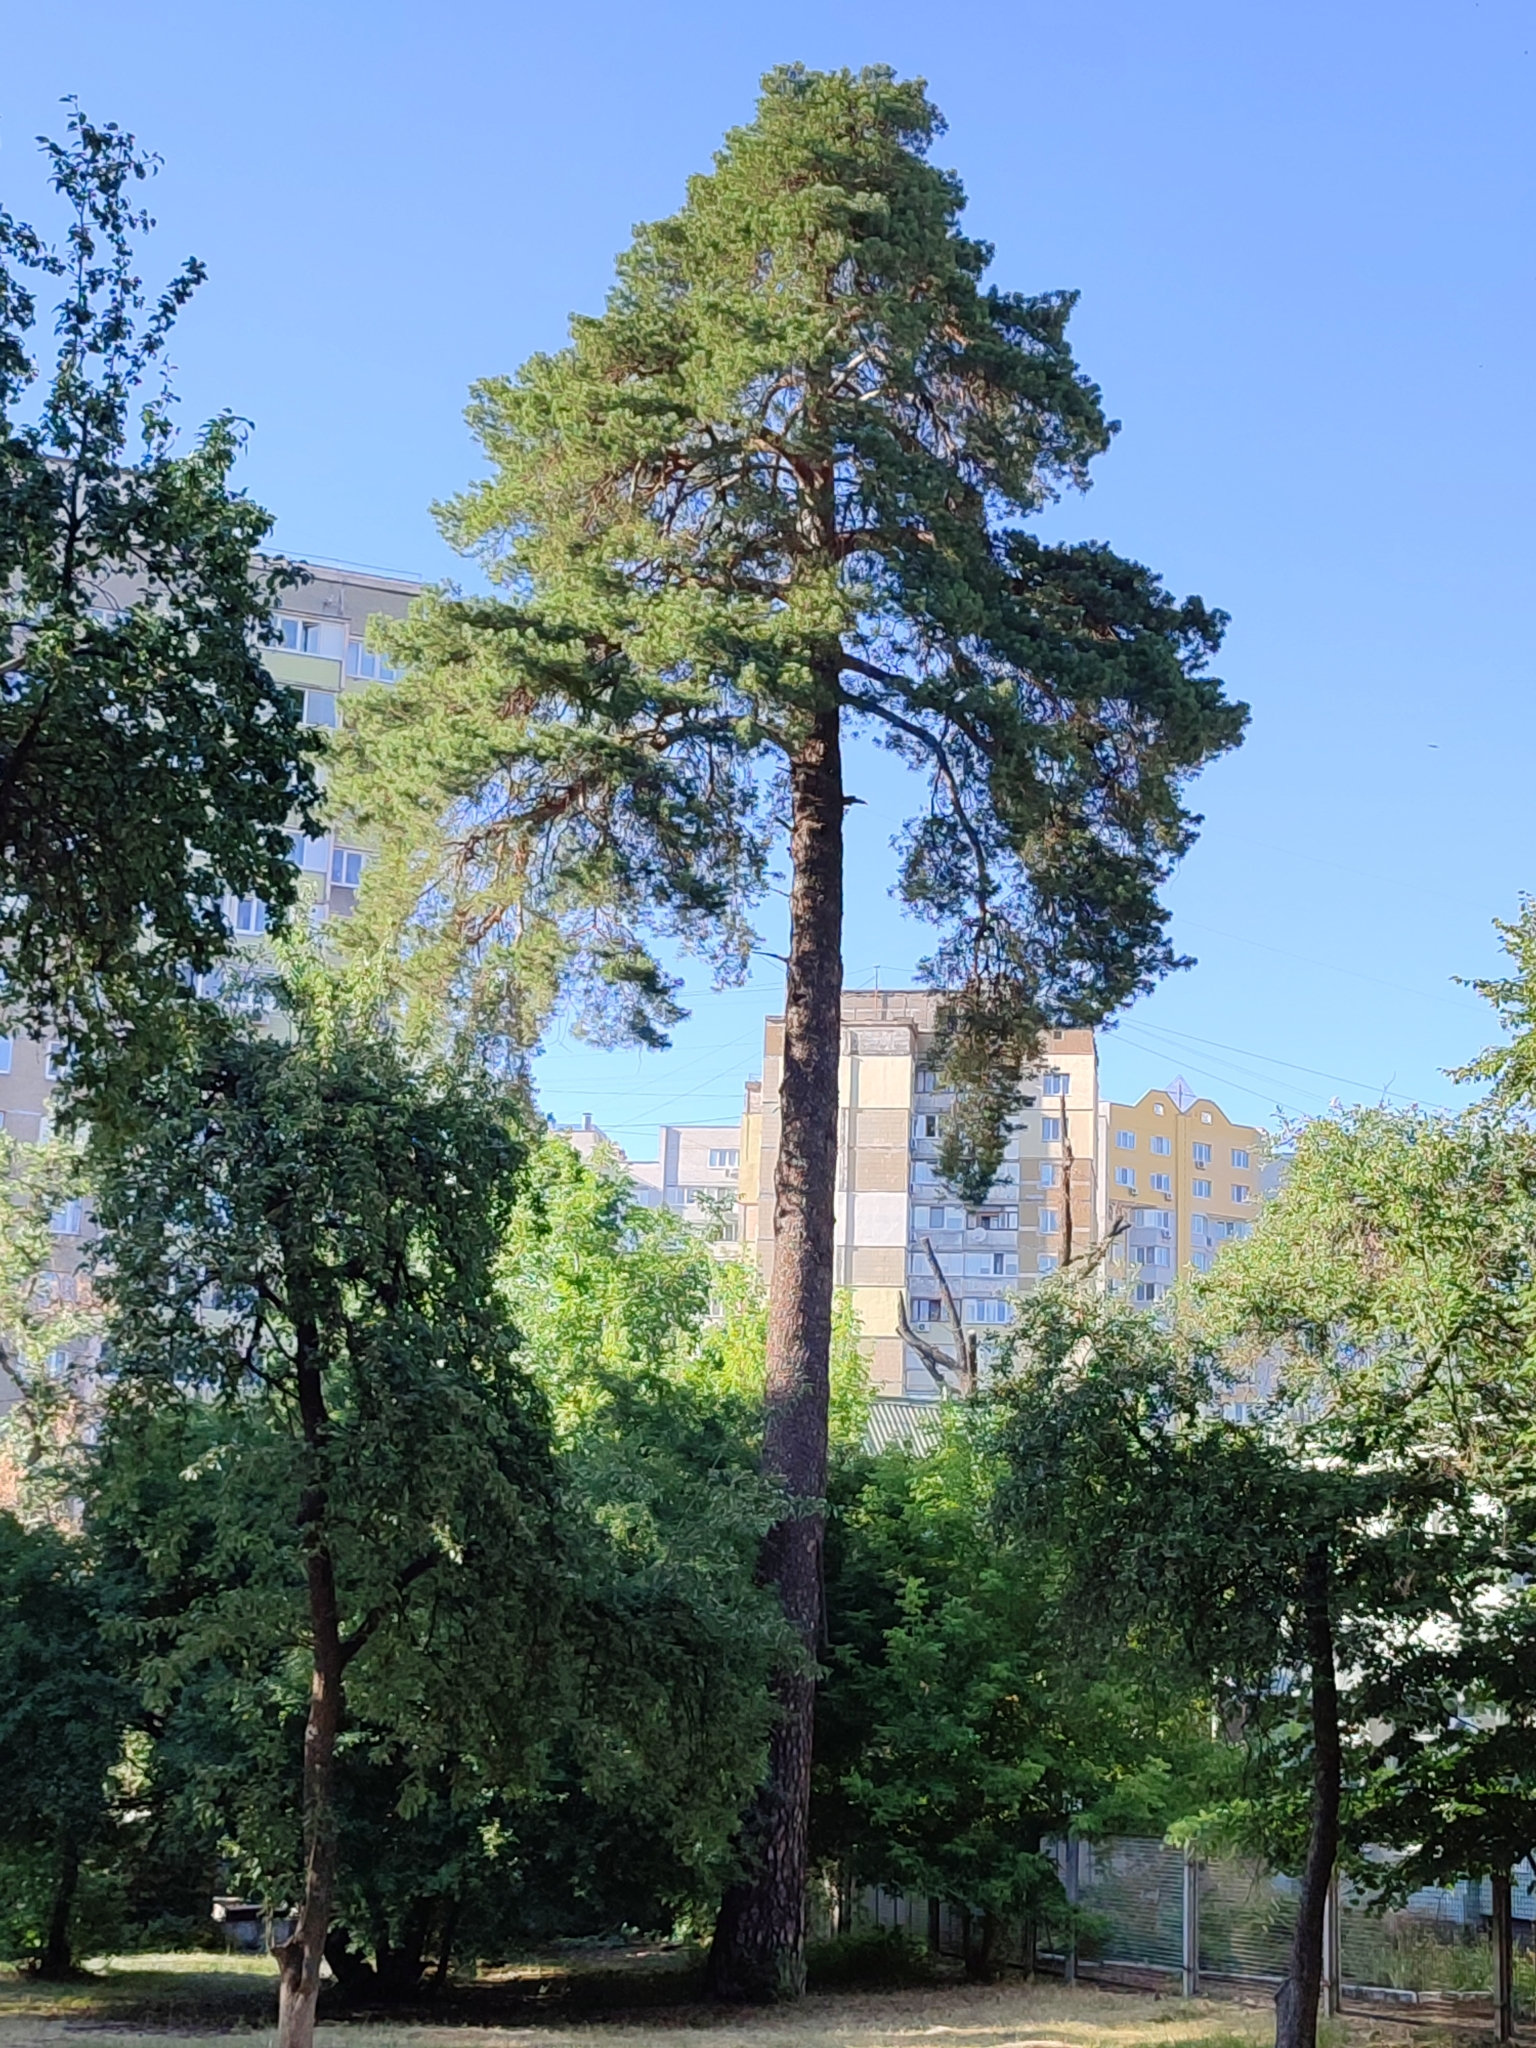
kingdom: Plantae
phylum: Tracheophyta
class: Pinopsida
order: Pinales
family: Pinaceae
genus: Pinus
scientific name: Pinus sylvestris
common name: Scots pine
